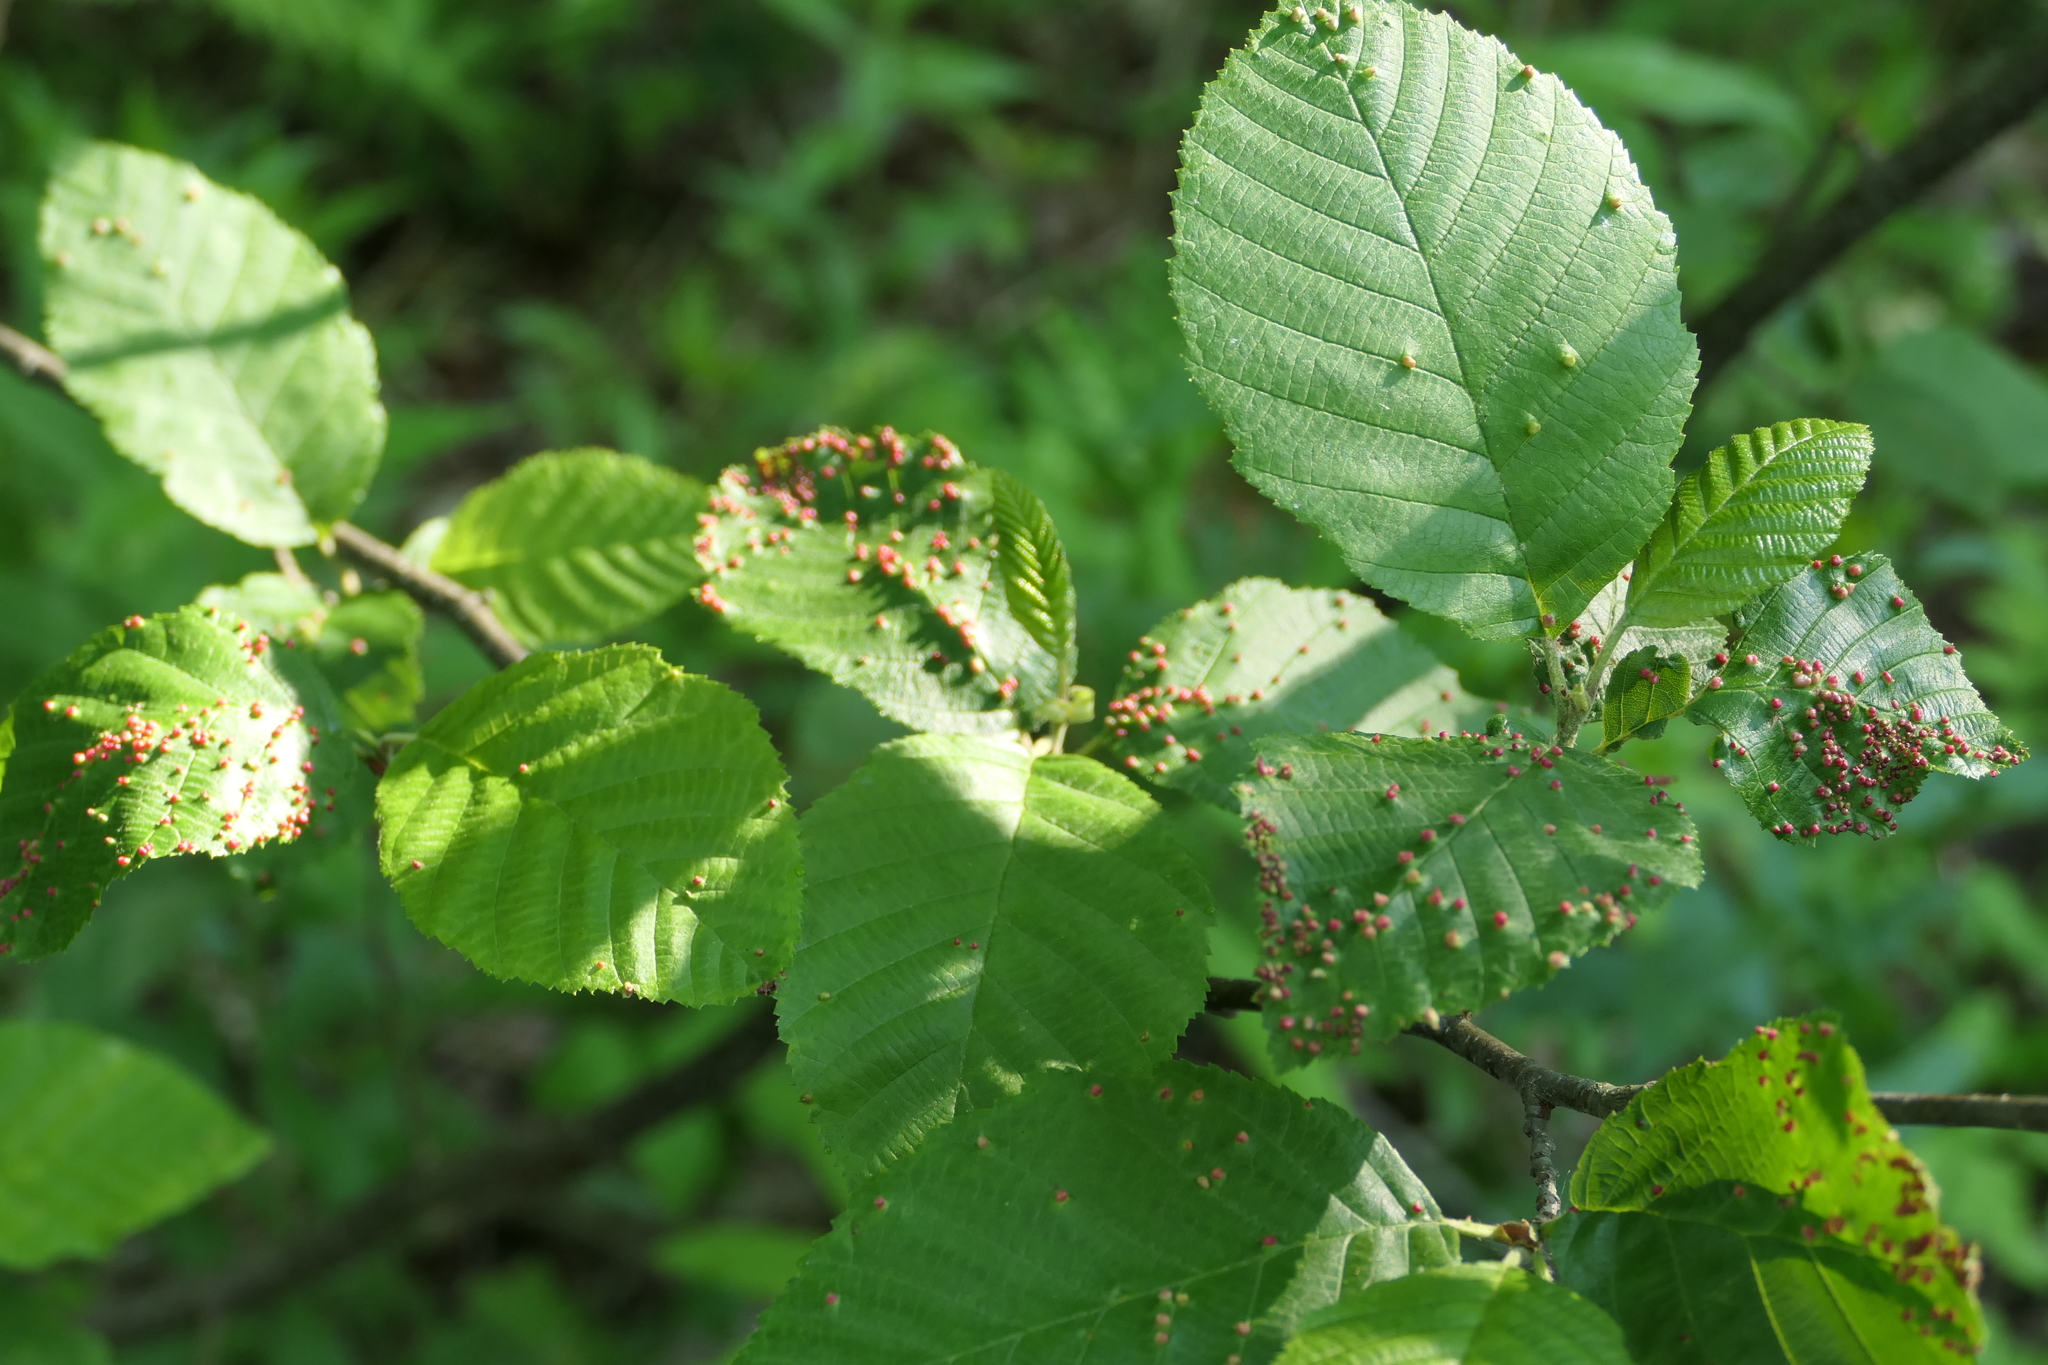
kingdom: Animalia
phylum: Arthropoda
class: Arachnida
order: Trombidiformes
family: Eriophyidae
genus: Eriophyes
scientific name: Eriophyes laevis
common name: Alder leaf gall mite
